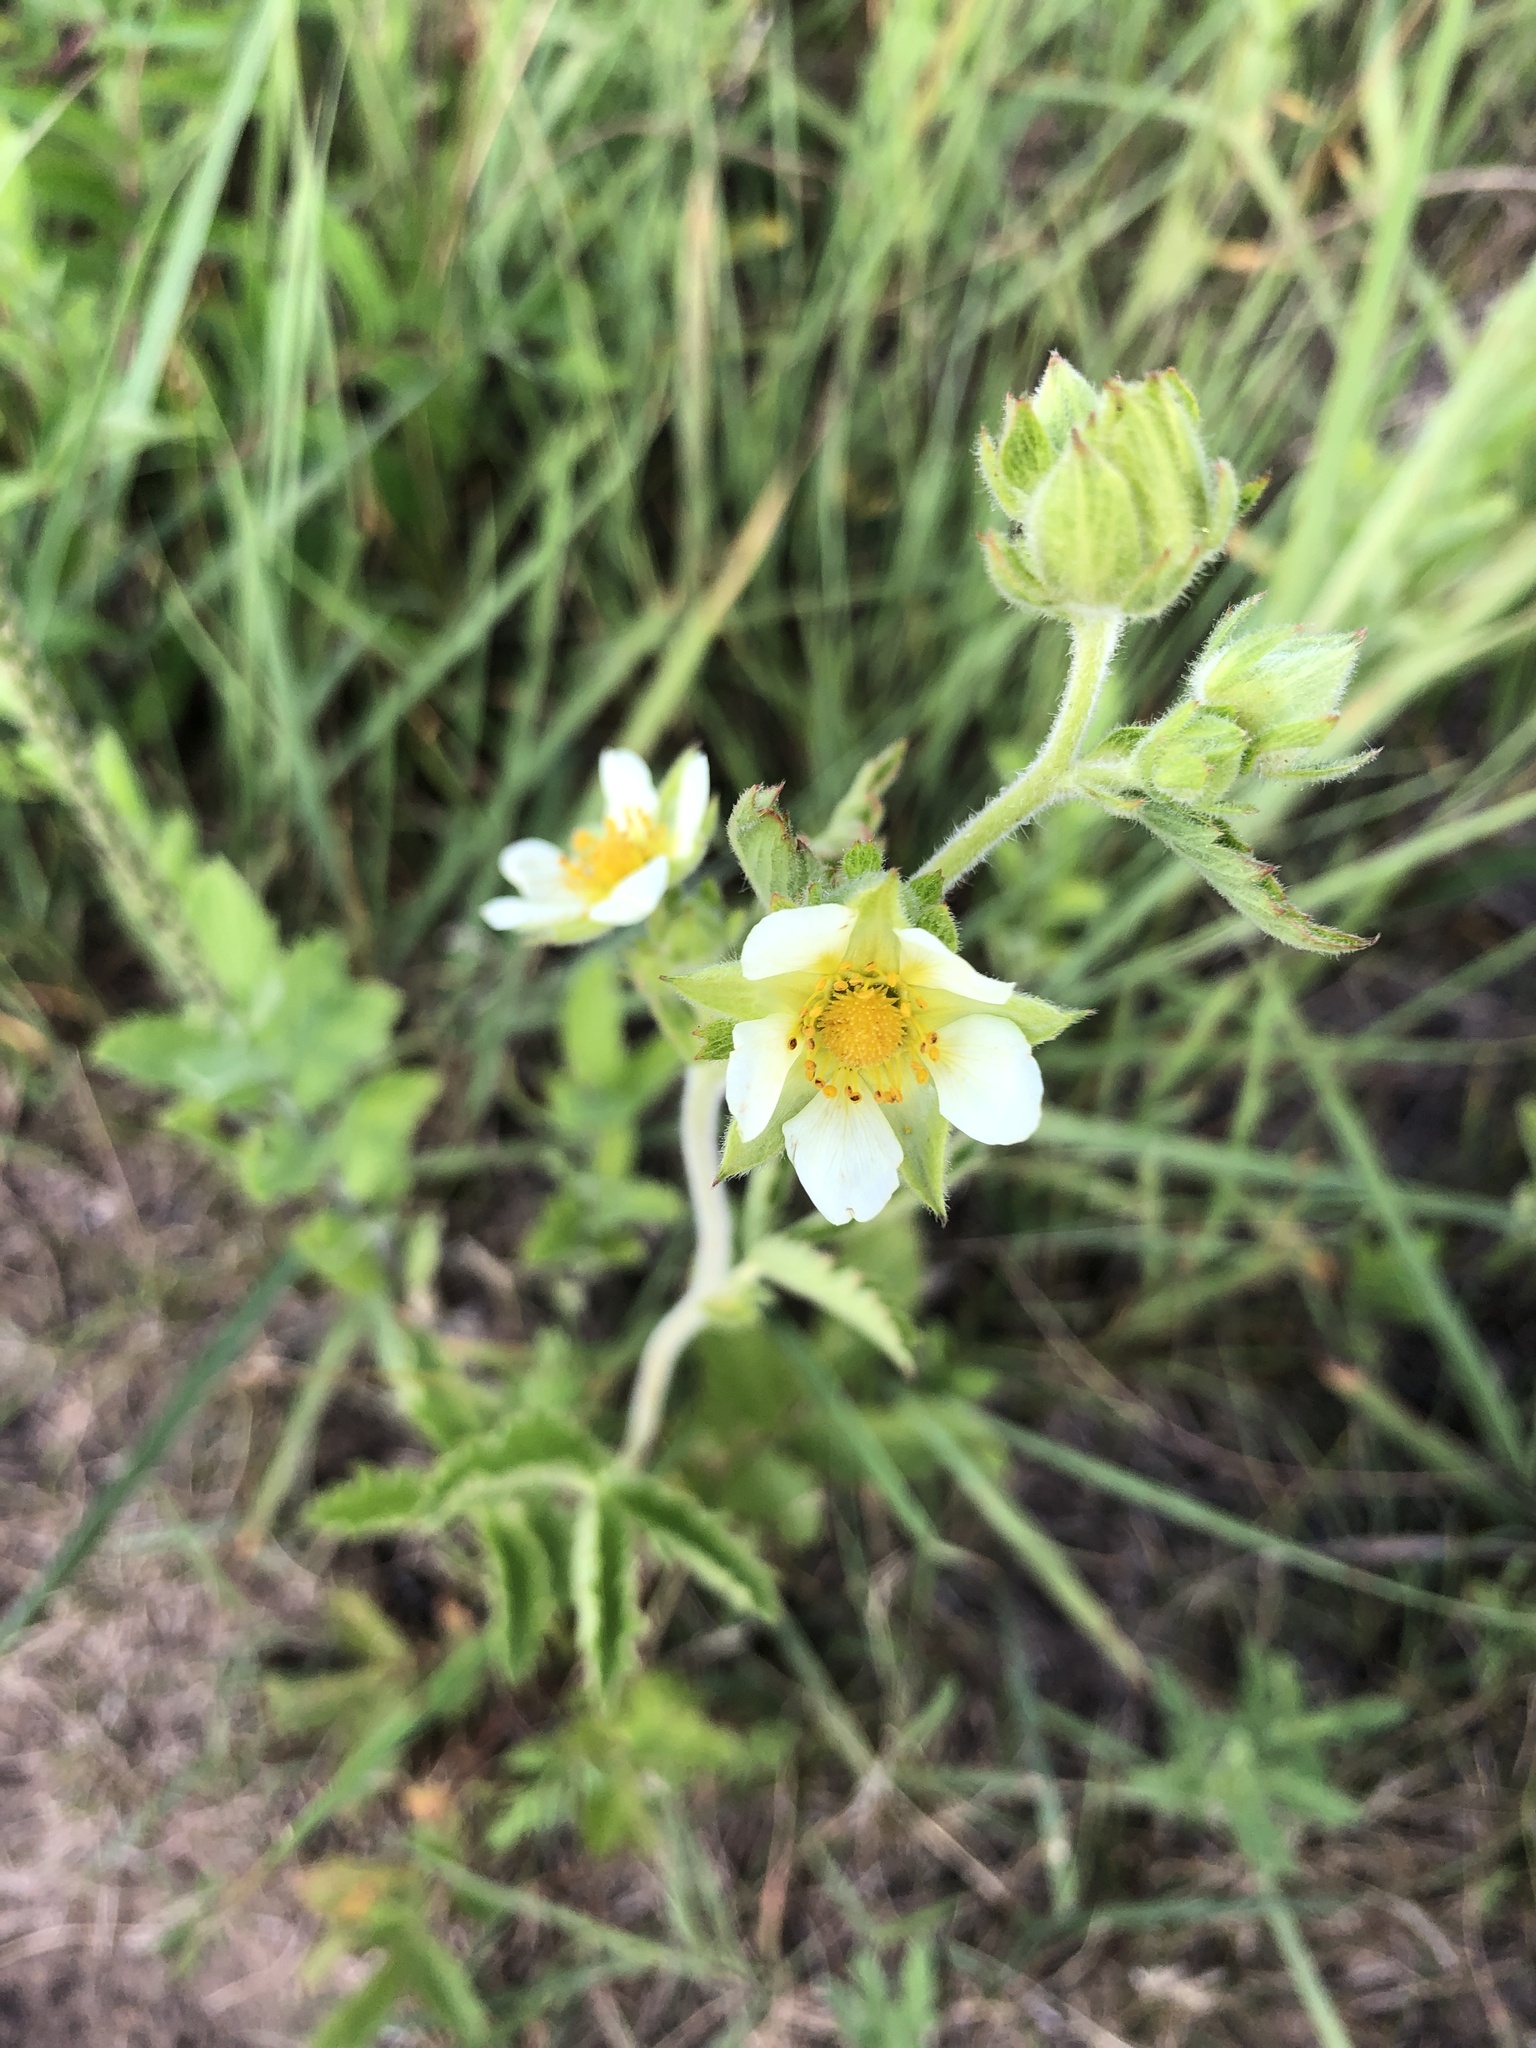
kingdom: Plantae
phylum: Tracheophyta
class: Magnoliopsida
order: Rosales
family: Rosaceae
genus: Drymocallis
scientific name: Drymocallis arguta
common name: Tall cinquefoil
